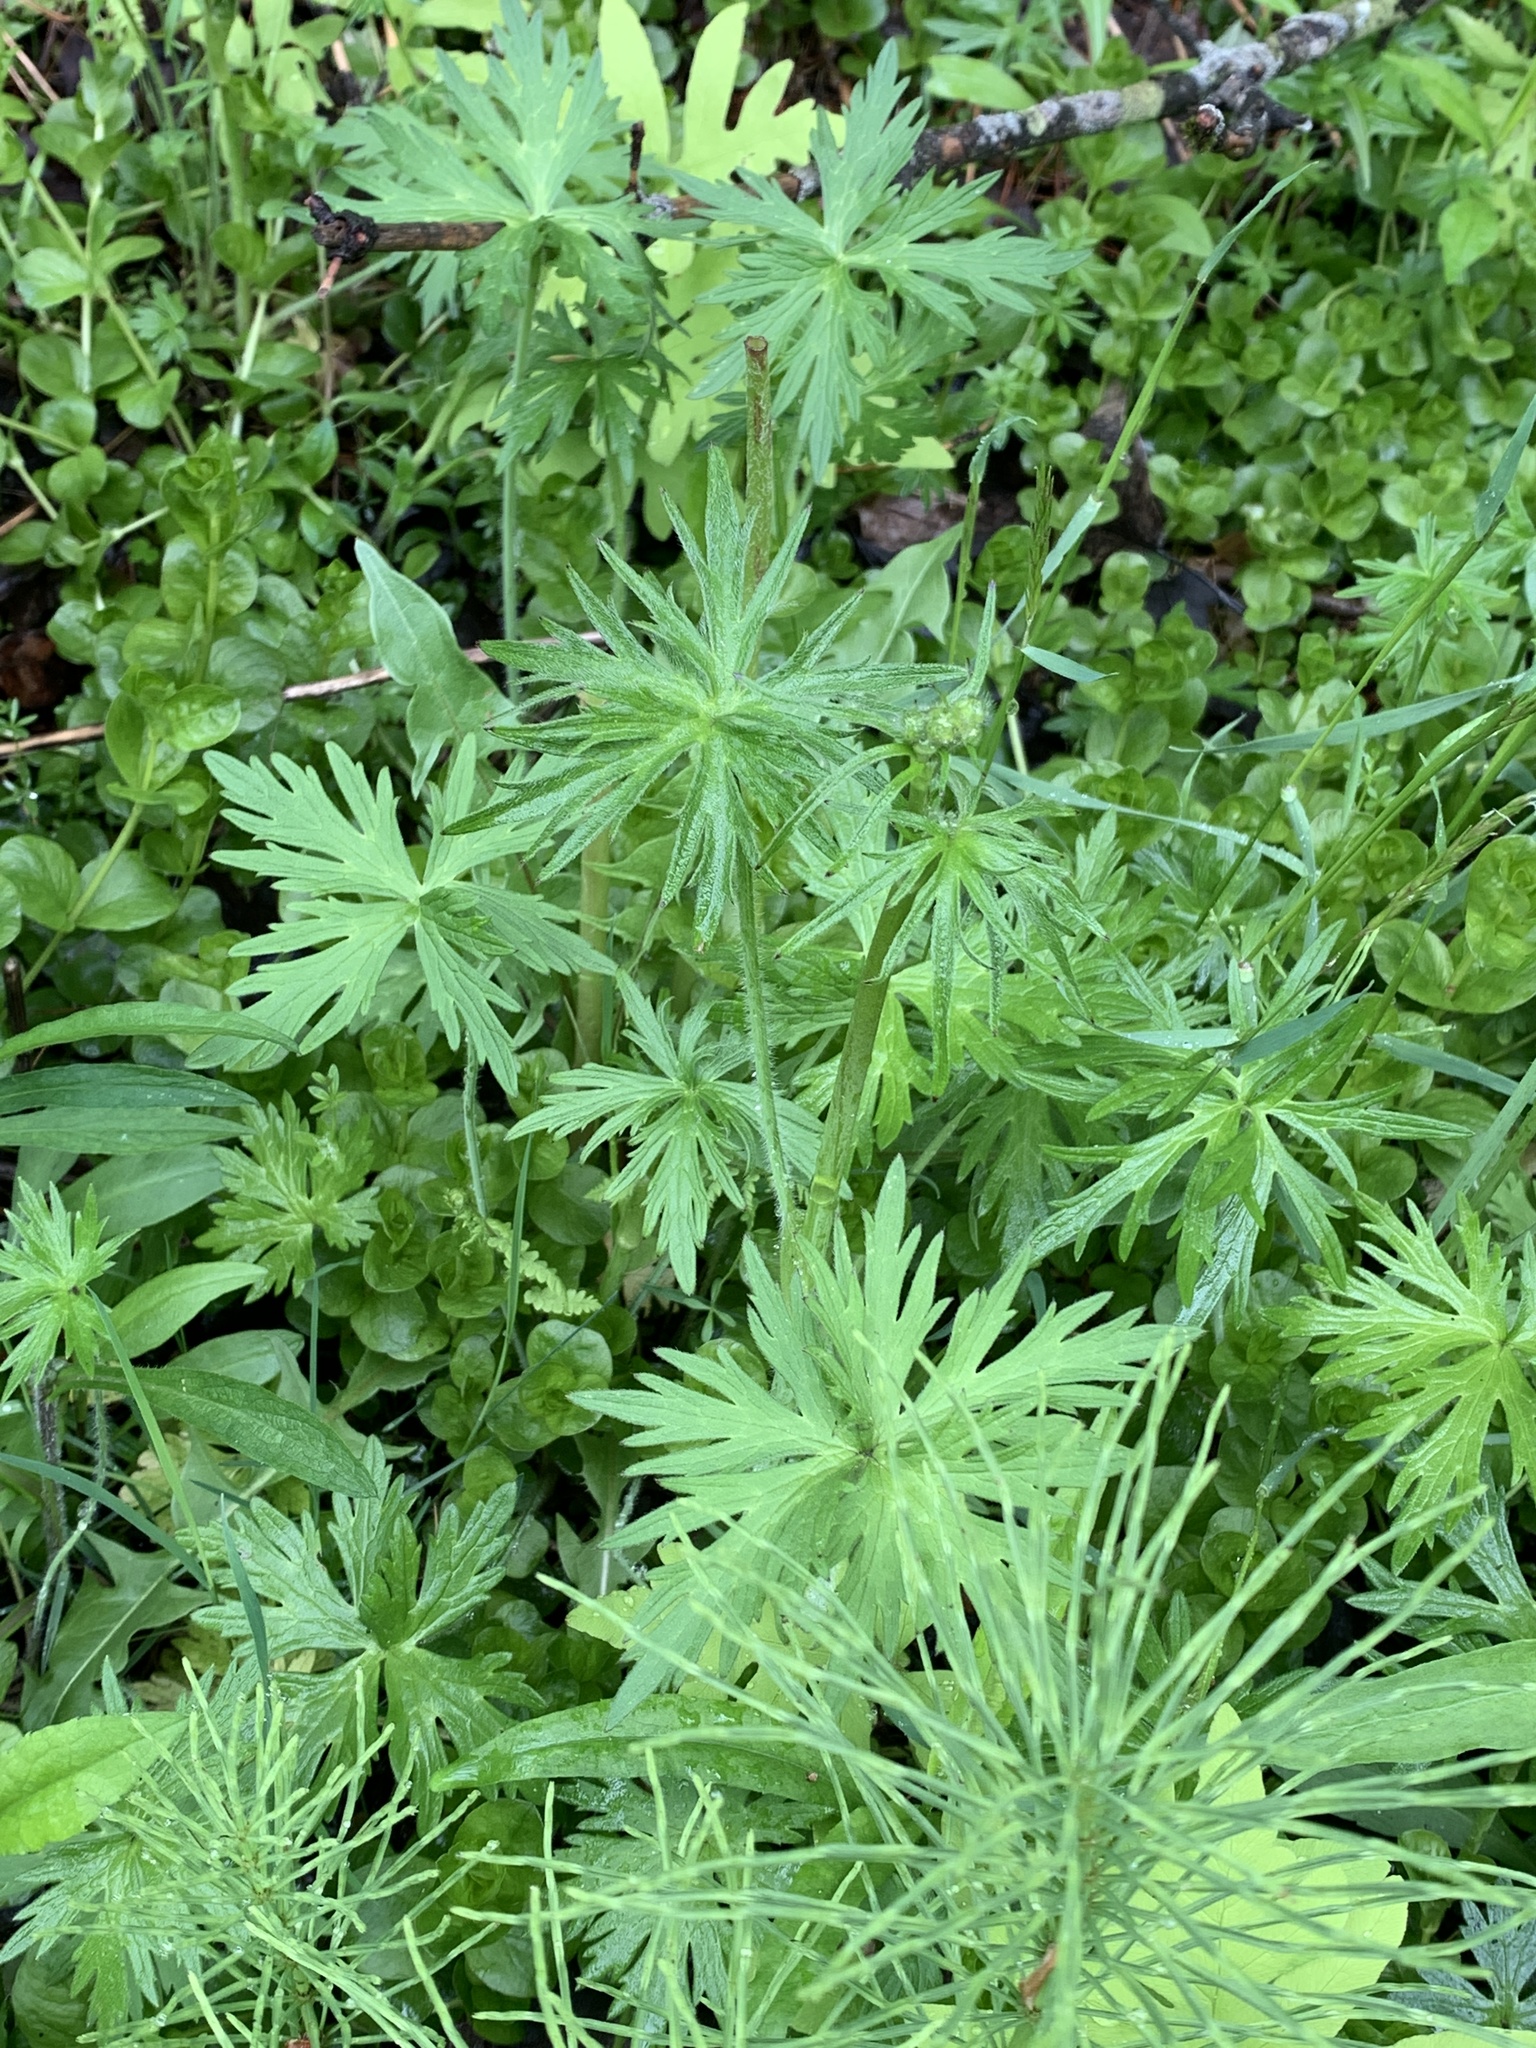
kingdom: Plantae
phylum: Tracheophyta
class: Magnoliopsida
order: Ranunculales
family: Ranunculaceae
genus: Ranunculus
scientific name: Ranunculus acris
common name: Meadow buttercup
